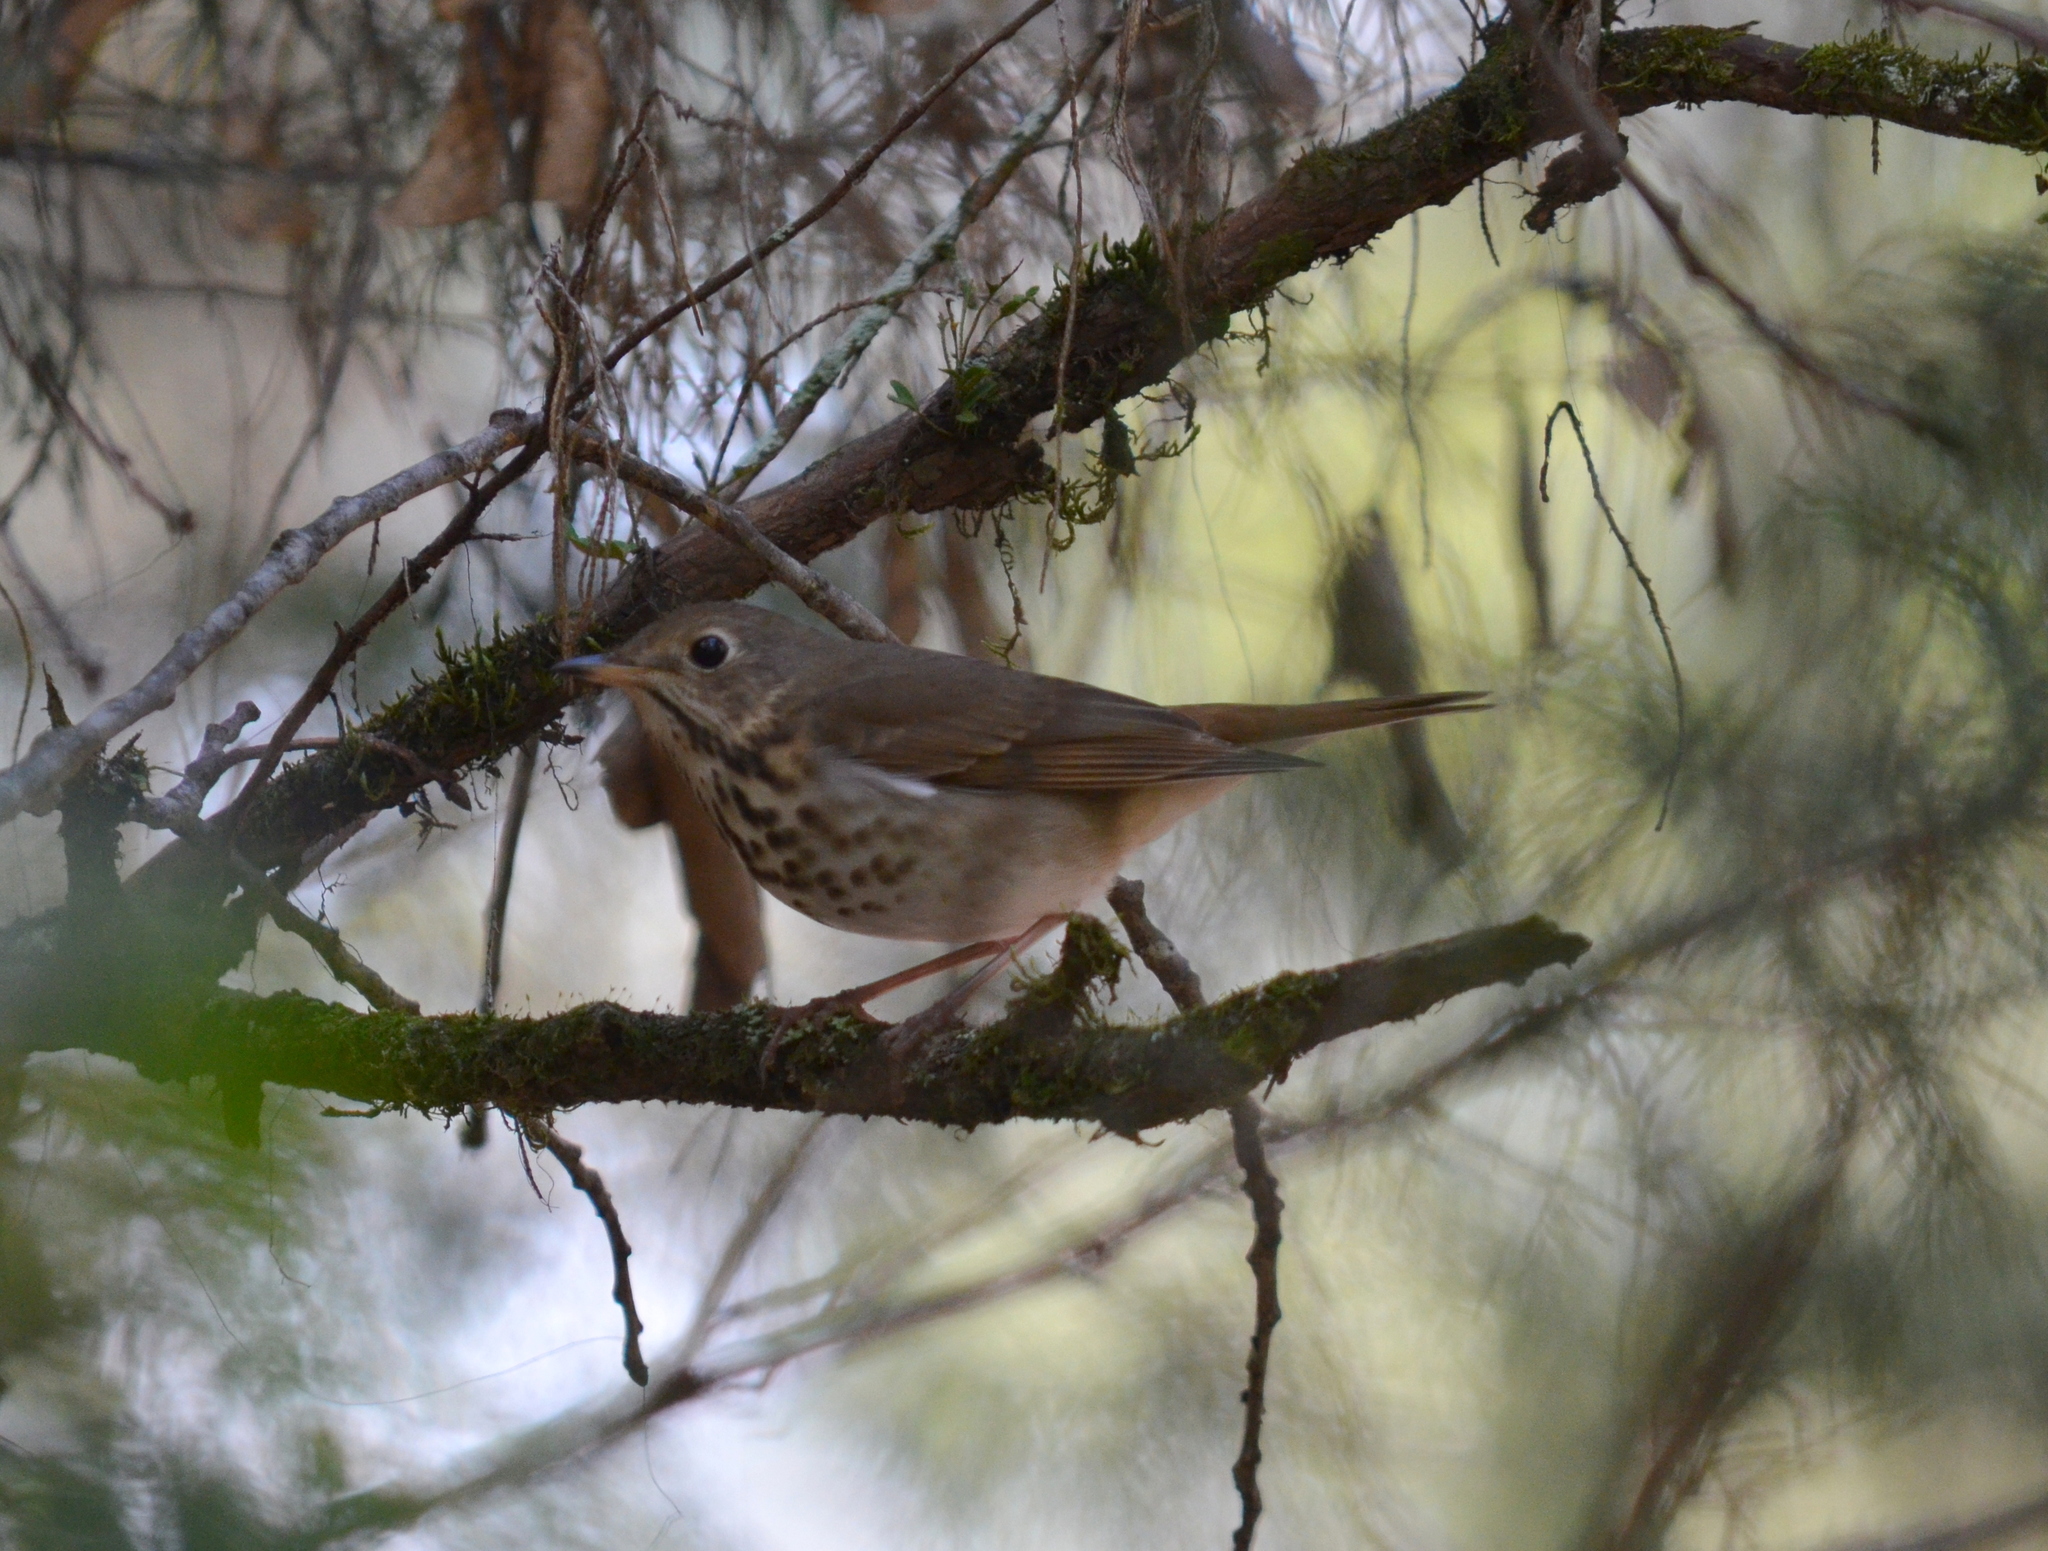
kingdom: Animalia
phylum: Chordata
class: Aves
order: Passeriformes
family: Turdidae
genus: Catharus
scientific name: Catharus guttatus
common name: Hermit thrush
